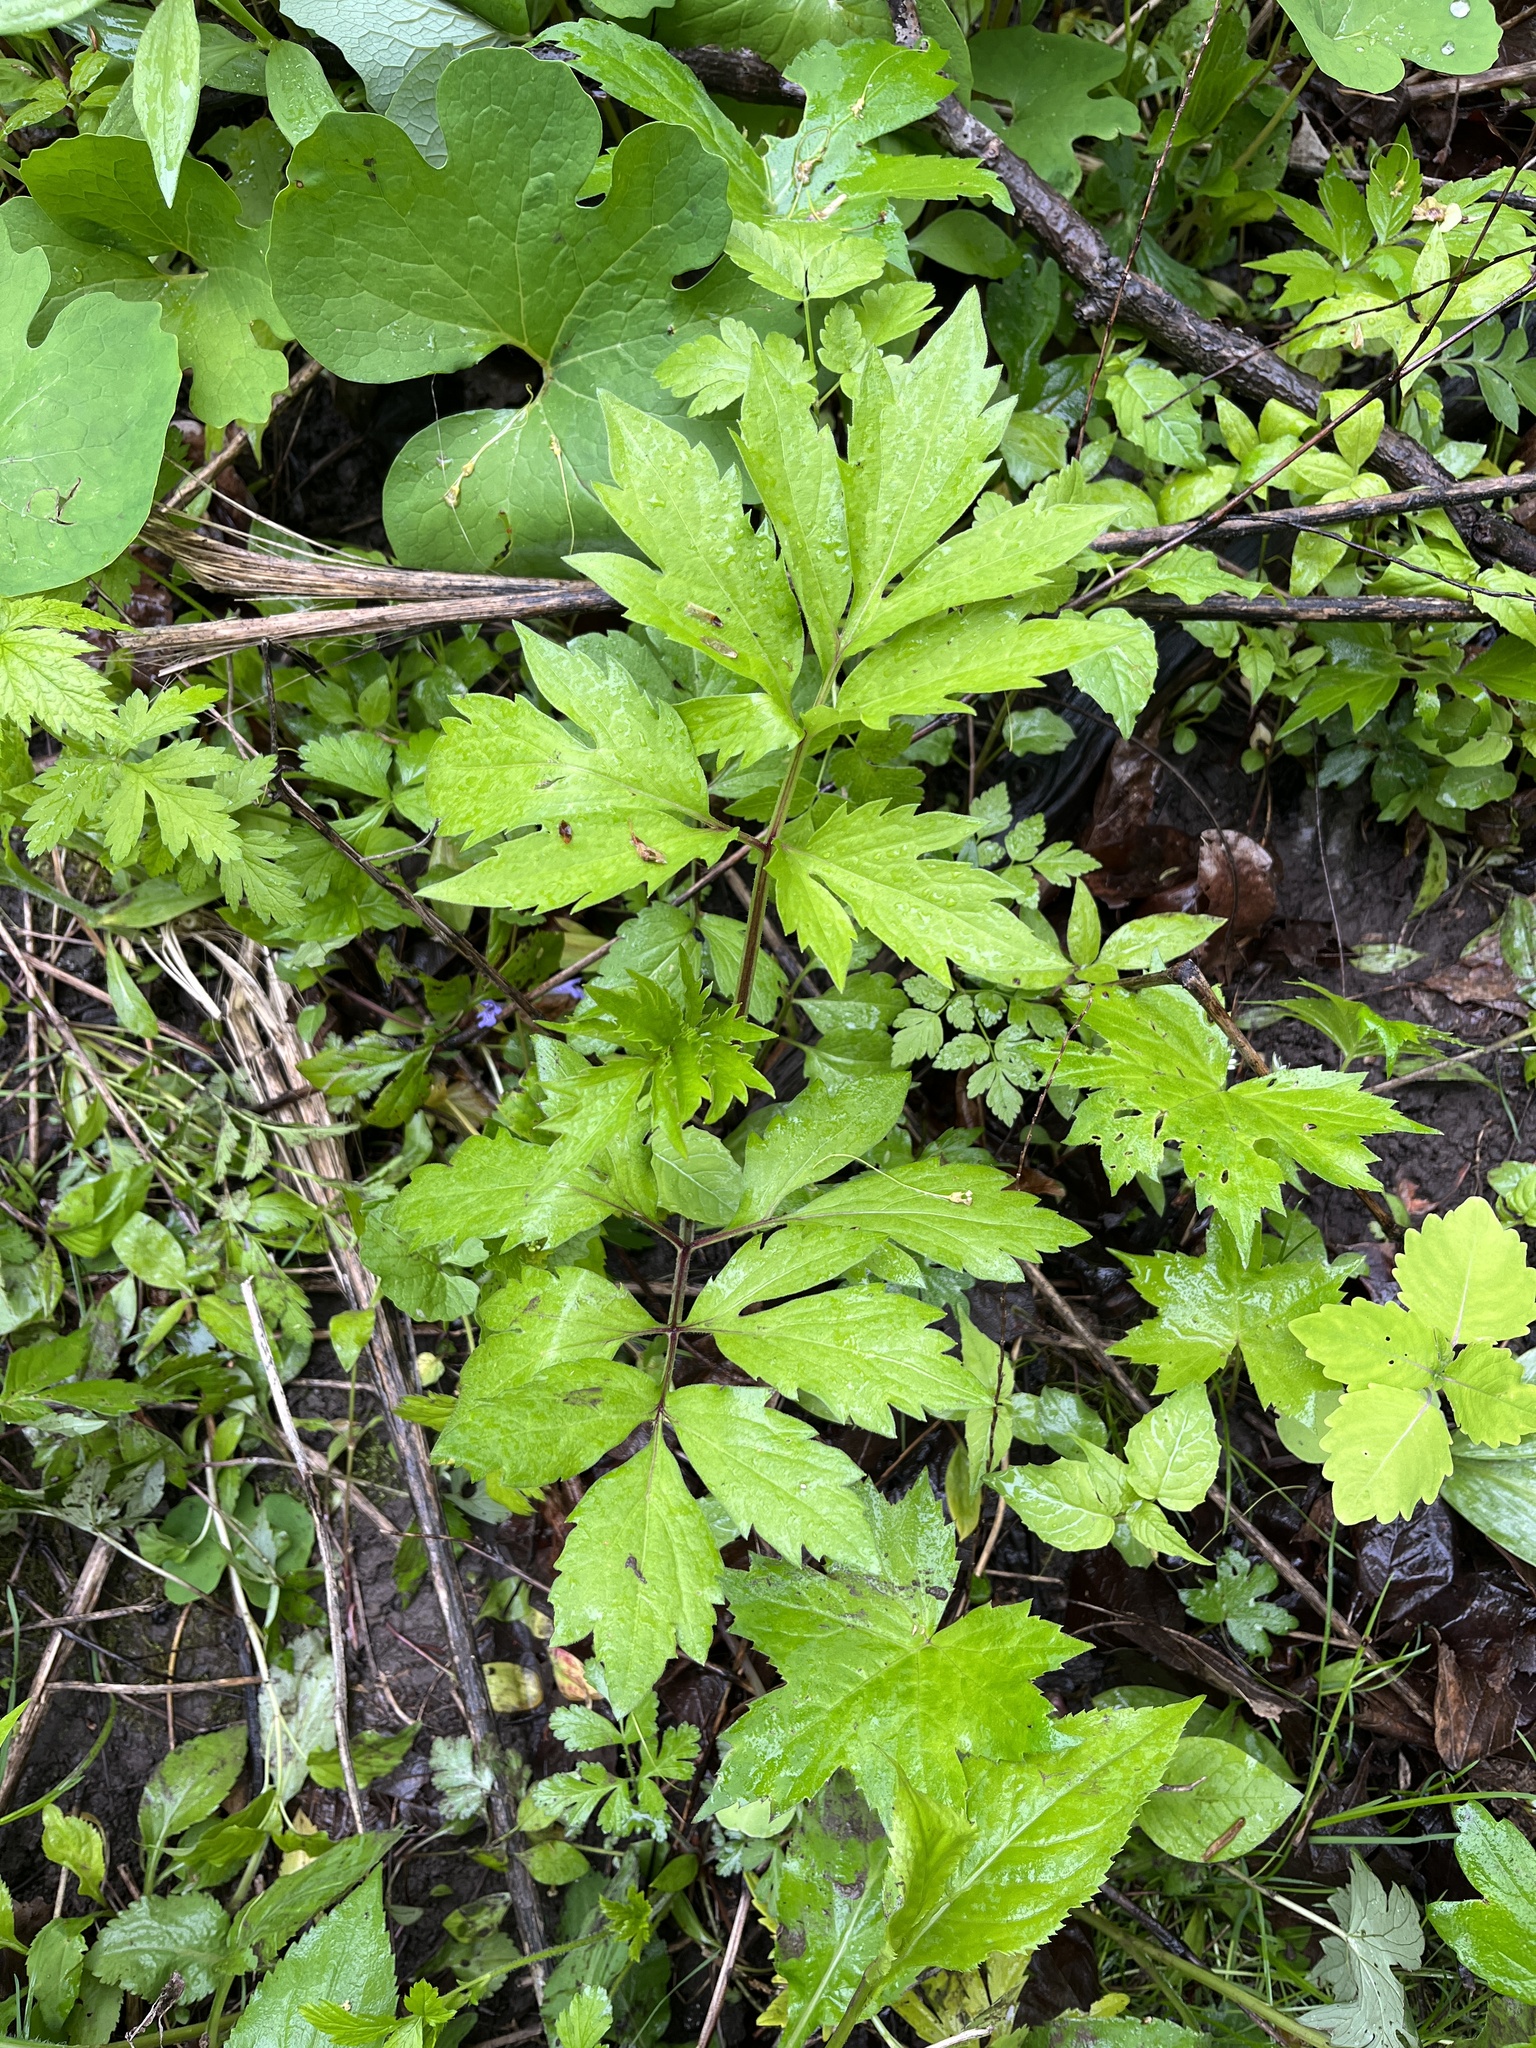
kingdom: Plantae
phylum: Tracheophyta
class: Magnoliopsida
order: Asterales
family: Asteraceae
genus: Rudbeckia
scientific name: Rudbeckia laciniata
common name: Coneflower
